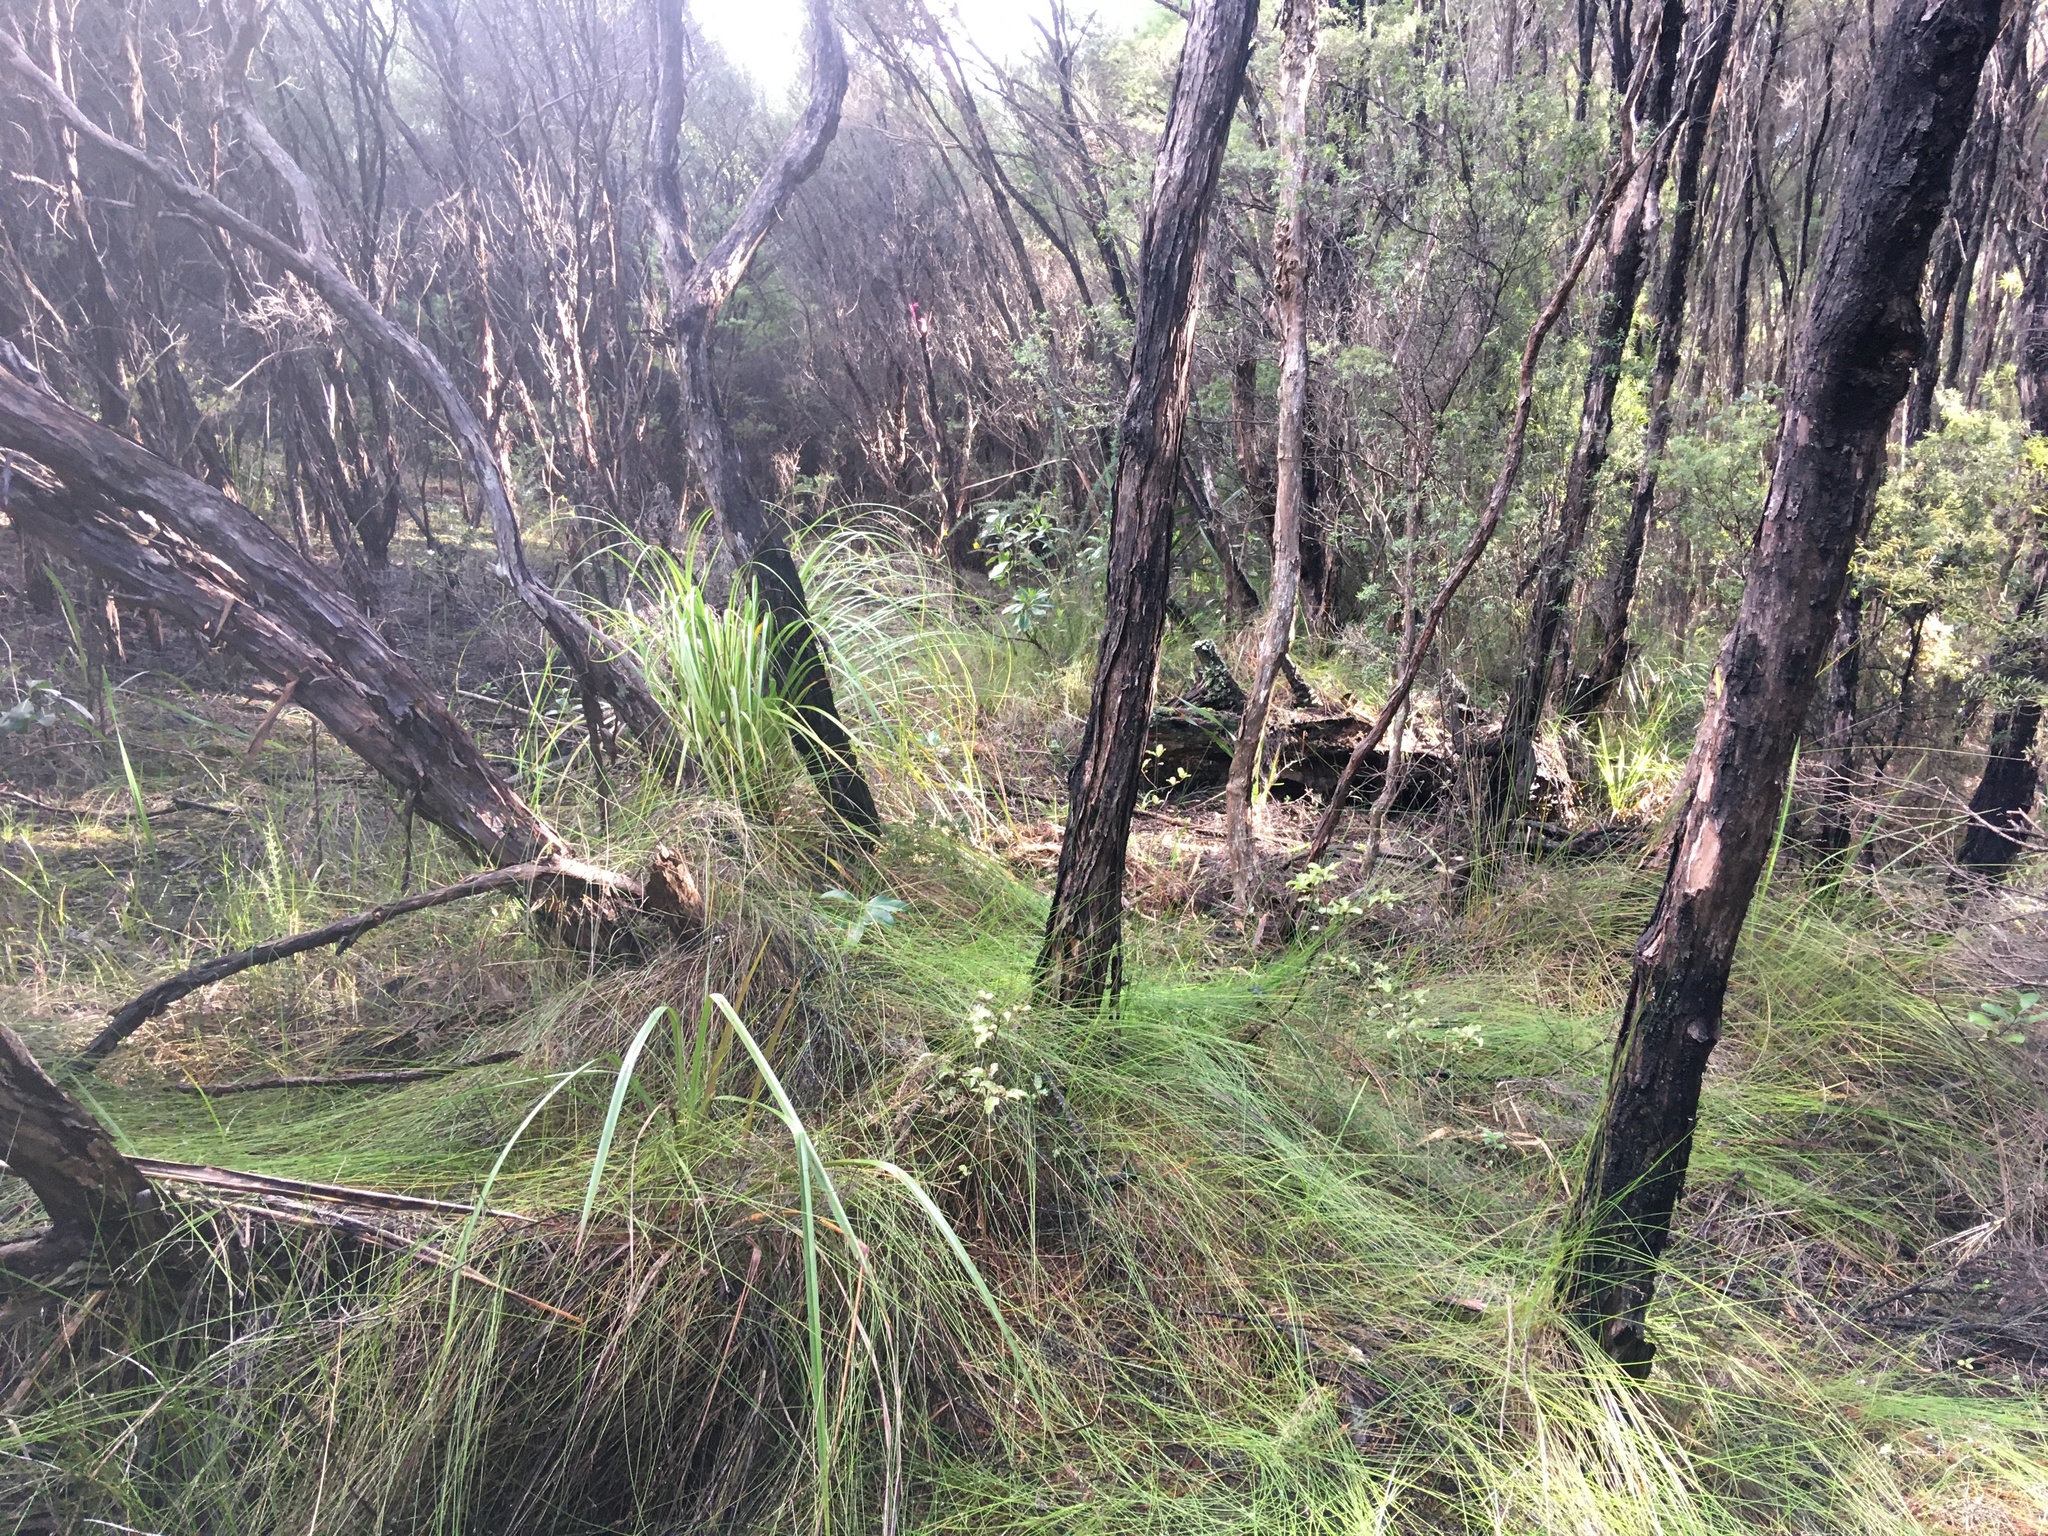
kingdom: Plantae
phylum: Tracheophyta
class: Liliopsida
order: Poales
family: Cyperaceae
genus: Schoenus
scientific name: Schoenus tendo
